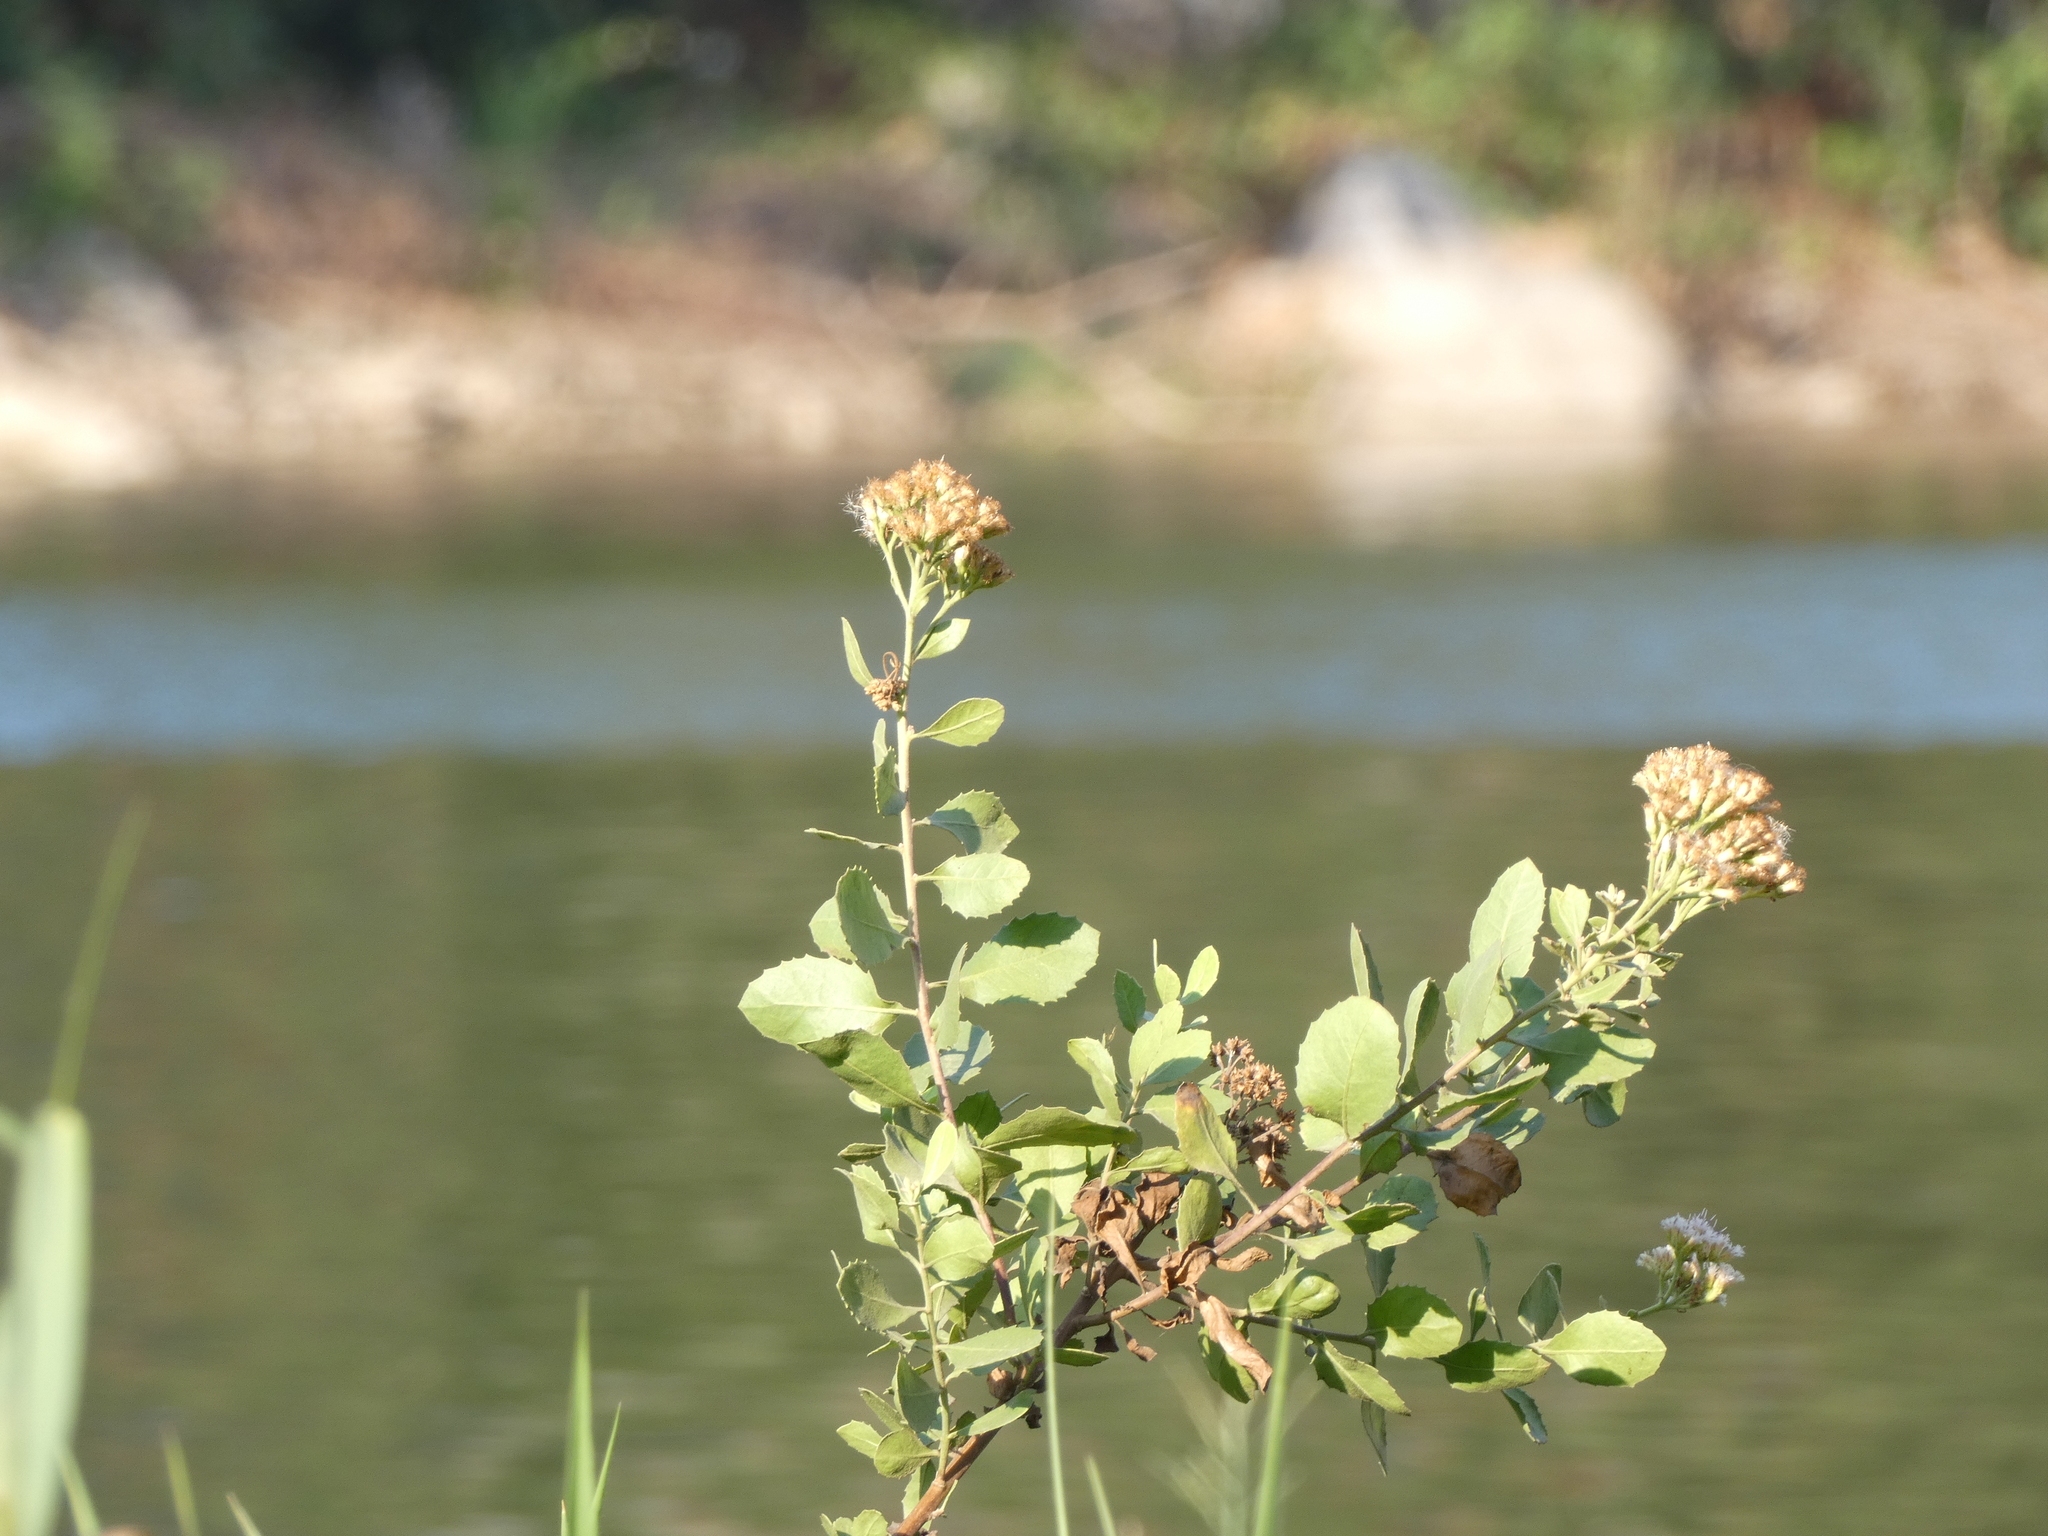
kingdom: Plantae
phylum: Tracheophyta
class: Magnoliopsida
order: Asterales
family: Asteraceae
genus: Pluchea
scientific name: Pluchea indica
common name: Indian fleabane
